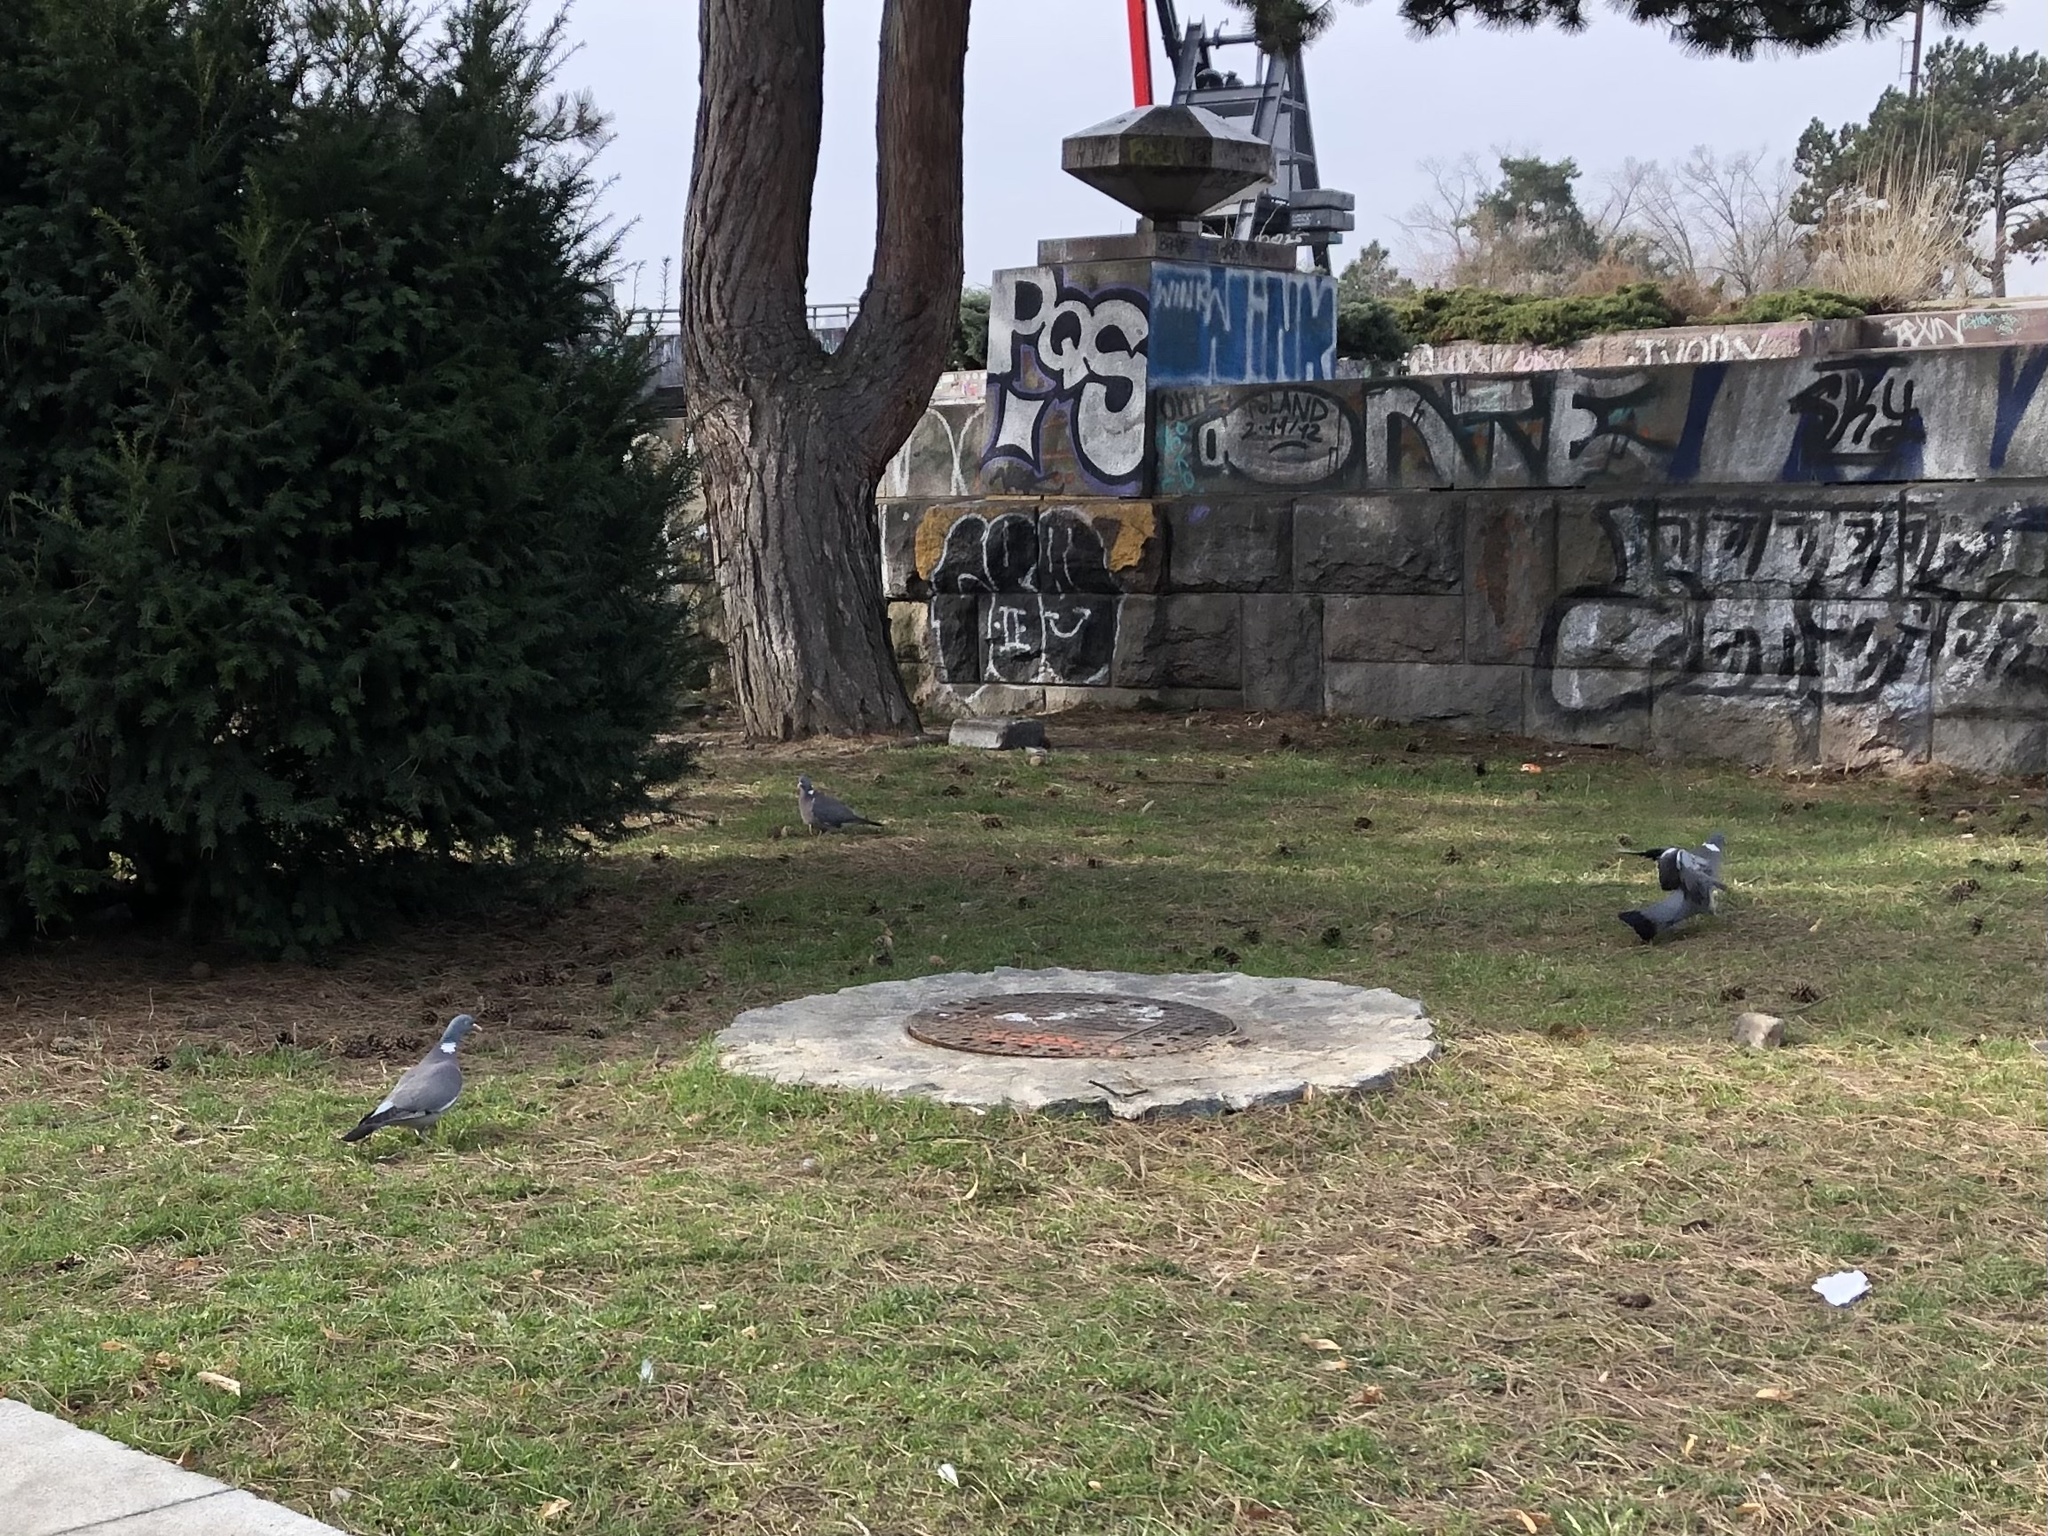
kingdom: Animalia
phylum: Chordata
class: Aves
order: Columbiformes
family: Columbidae
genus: Columba
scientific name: Columba palumbus
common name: Common wood pigeon
